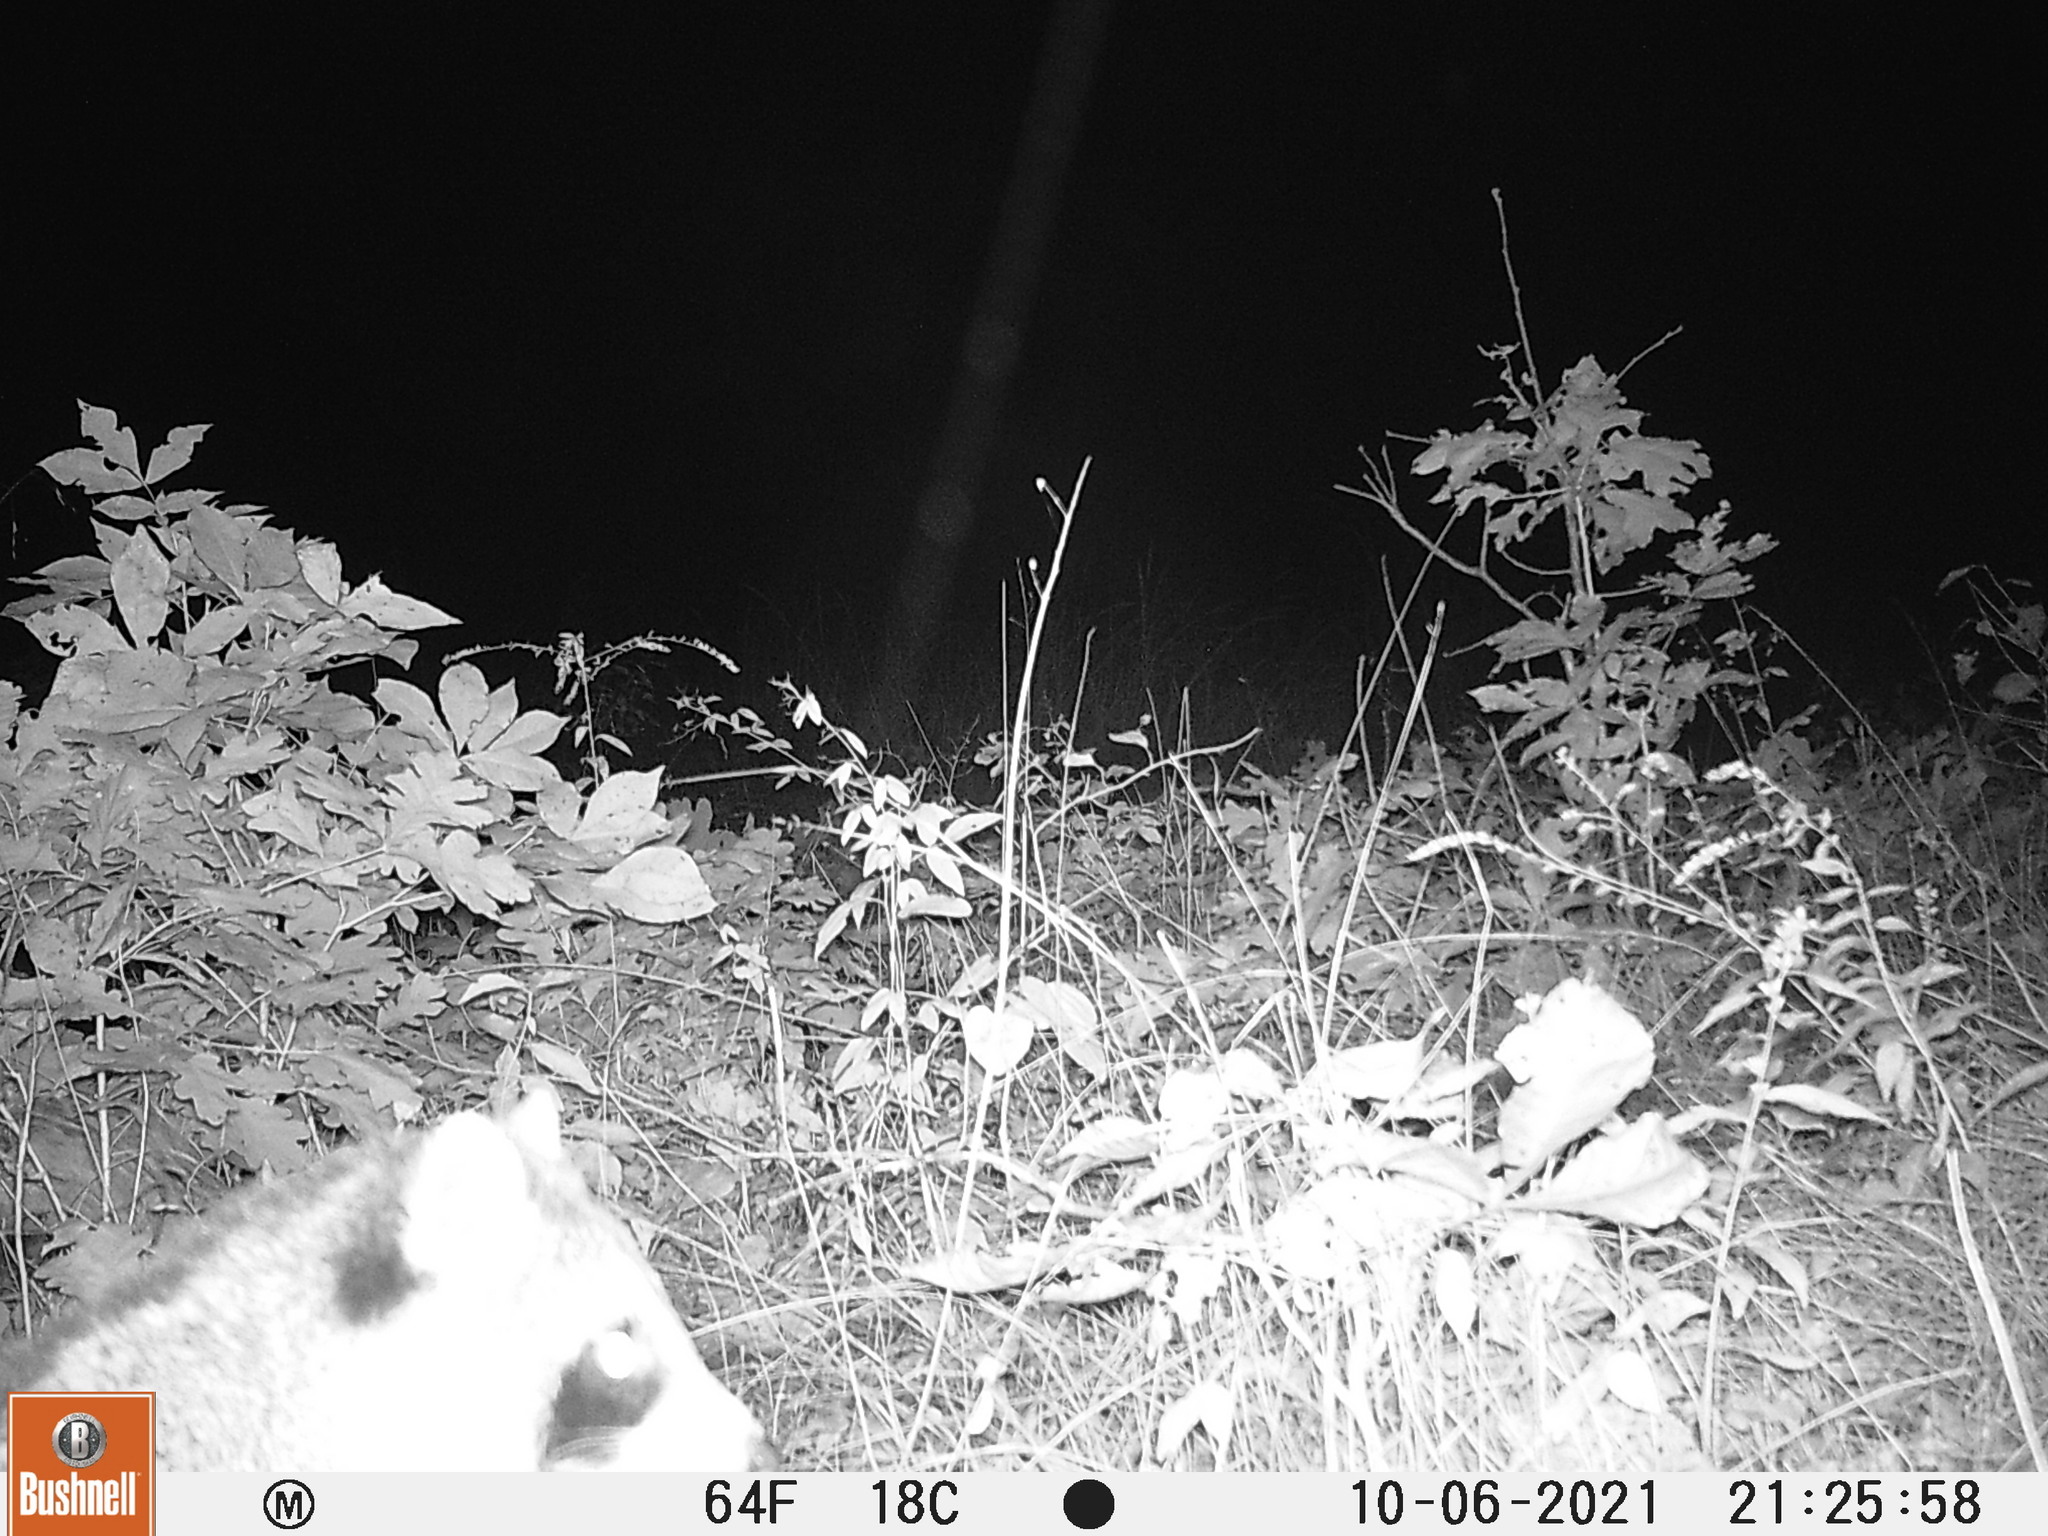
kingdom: Animalia
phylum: Chordata
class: Mammalia
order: Carnivora
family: Procyonidae
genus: Procyon
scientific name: Procyon lotor
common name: Raccoon
